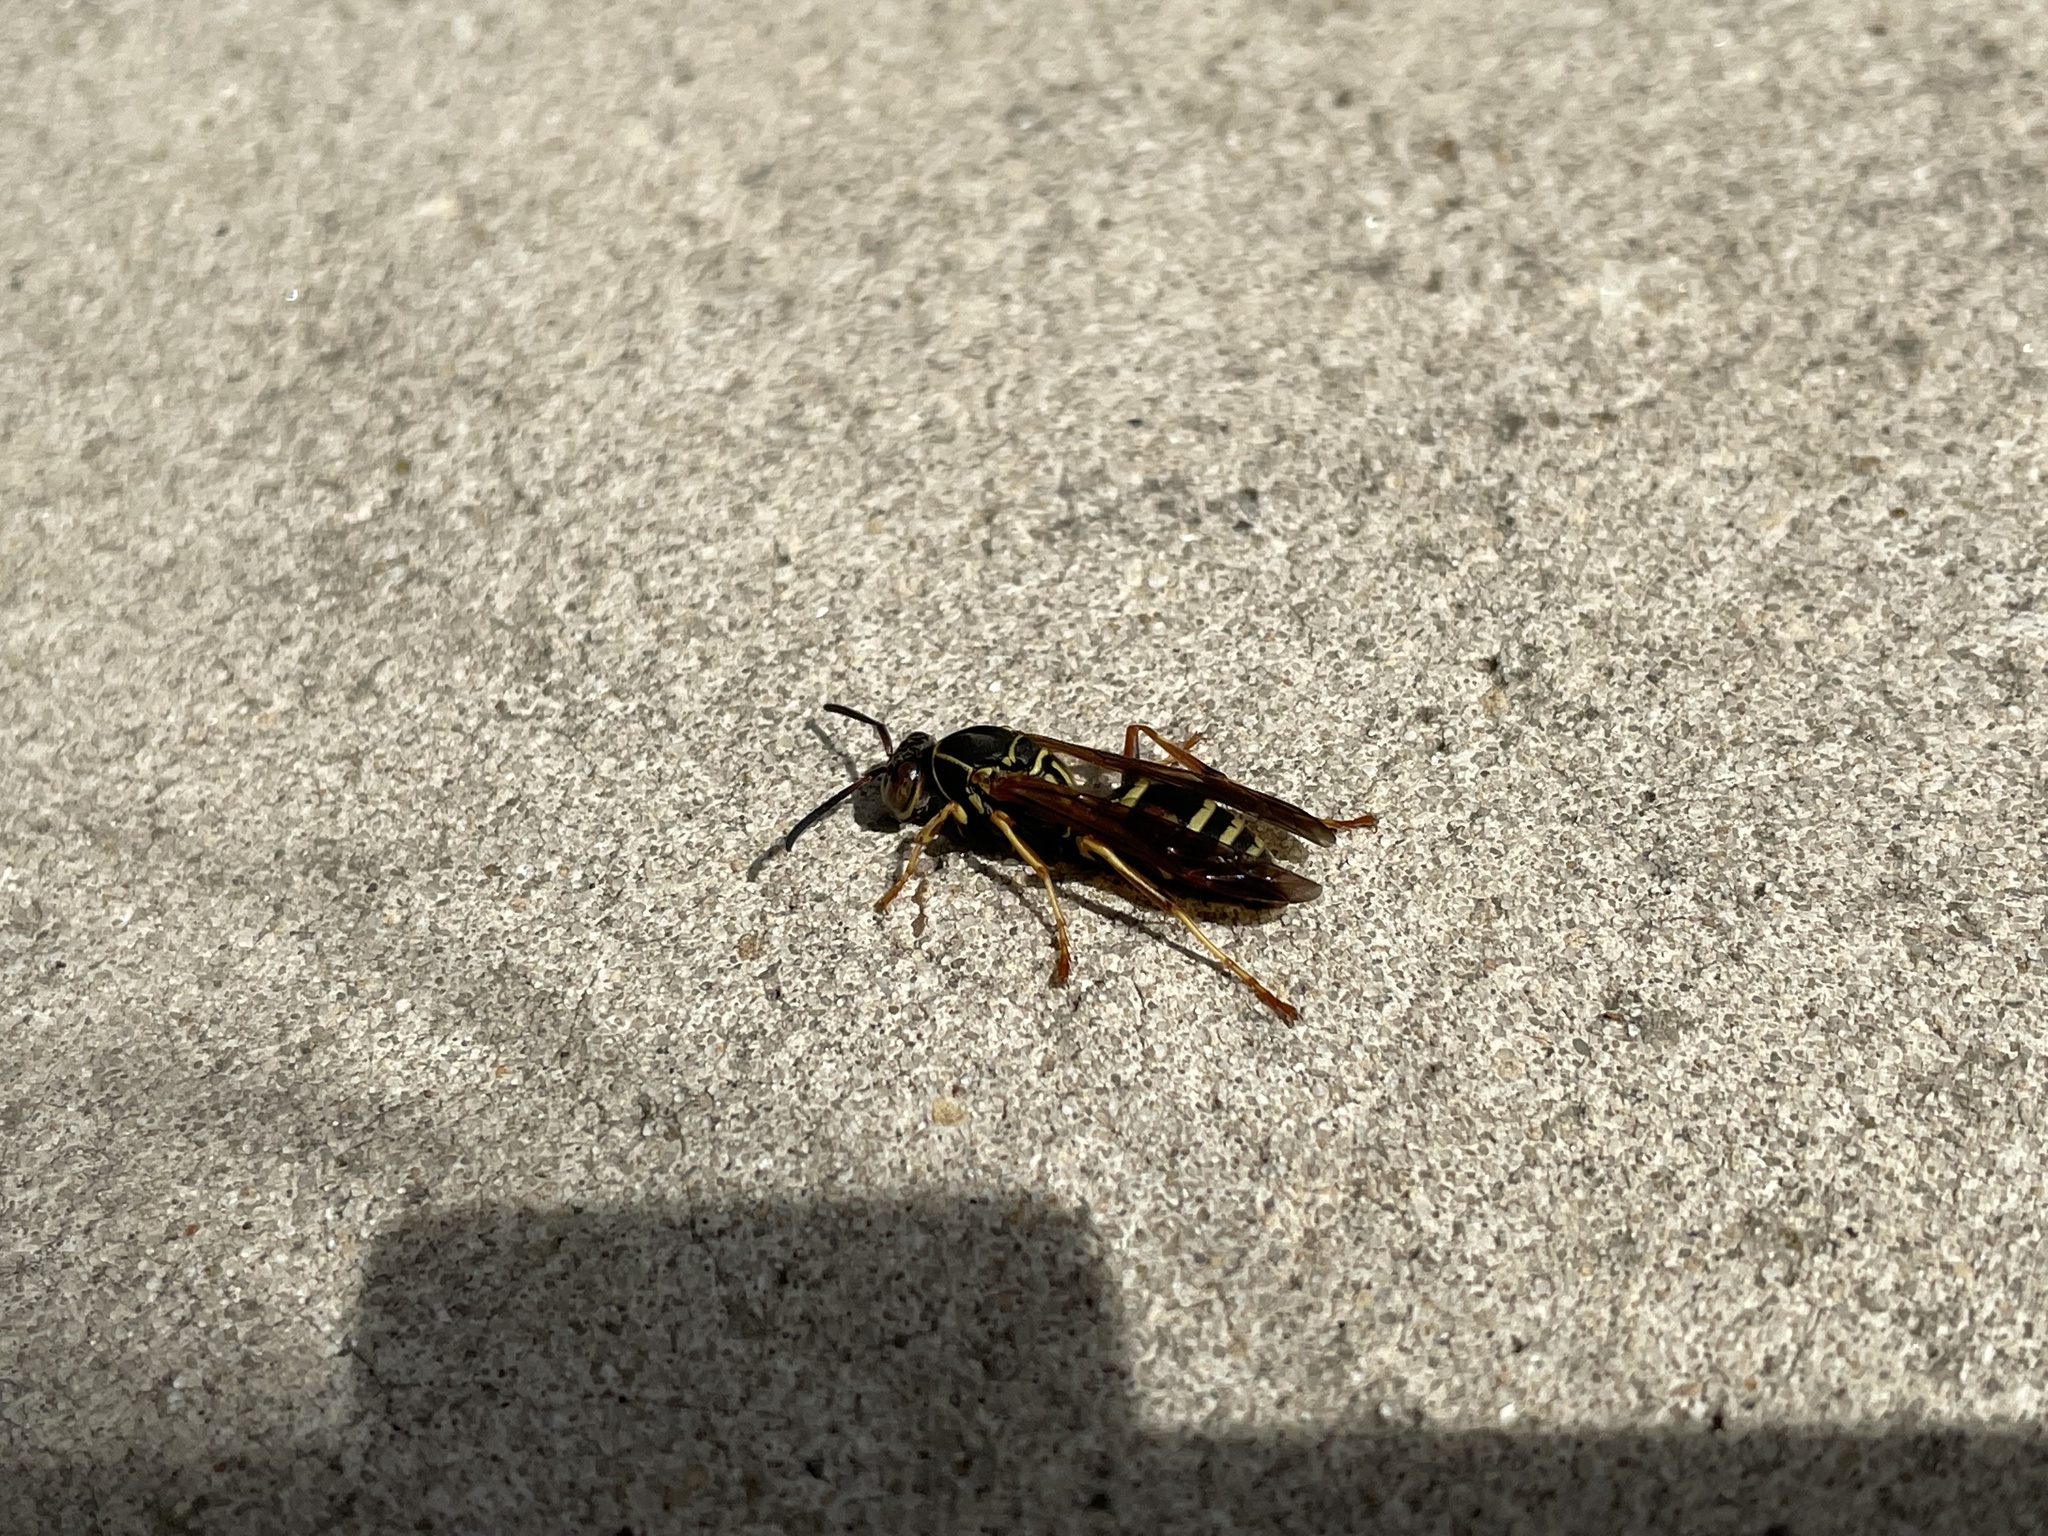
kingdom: Animalia
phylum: Arthropoda
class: Insecta
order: Hymenoptera
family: Eumenidae
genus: Polistes
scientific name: Polistes fuscatus
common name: Dark paper wasp
